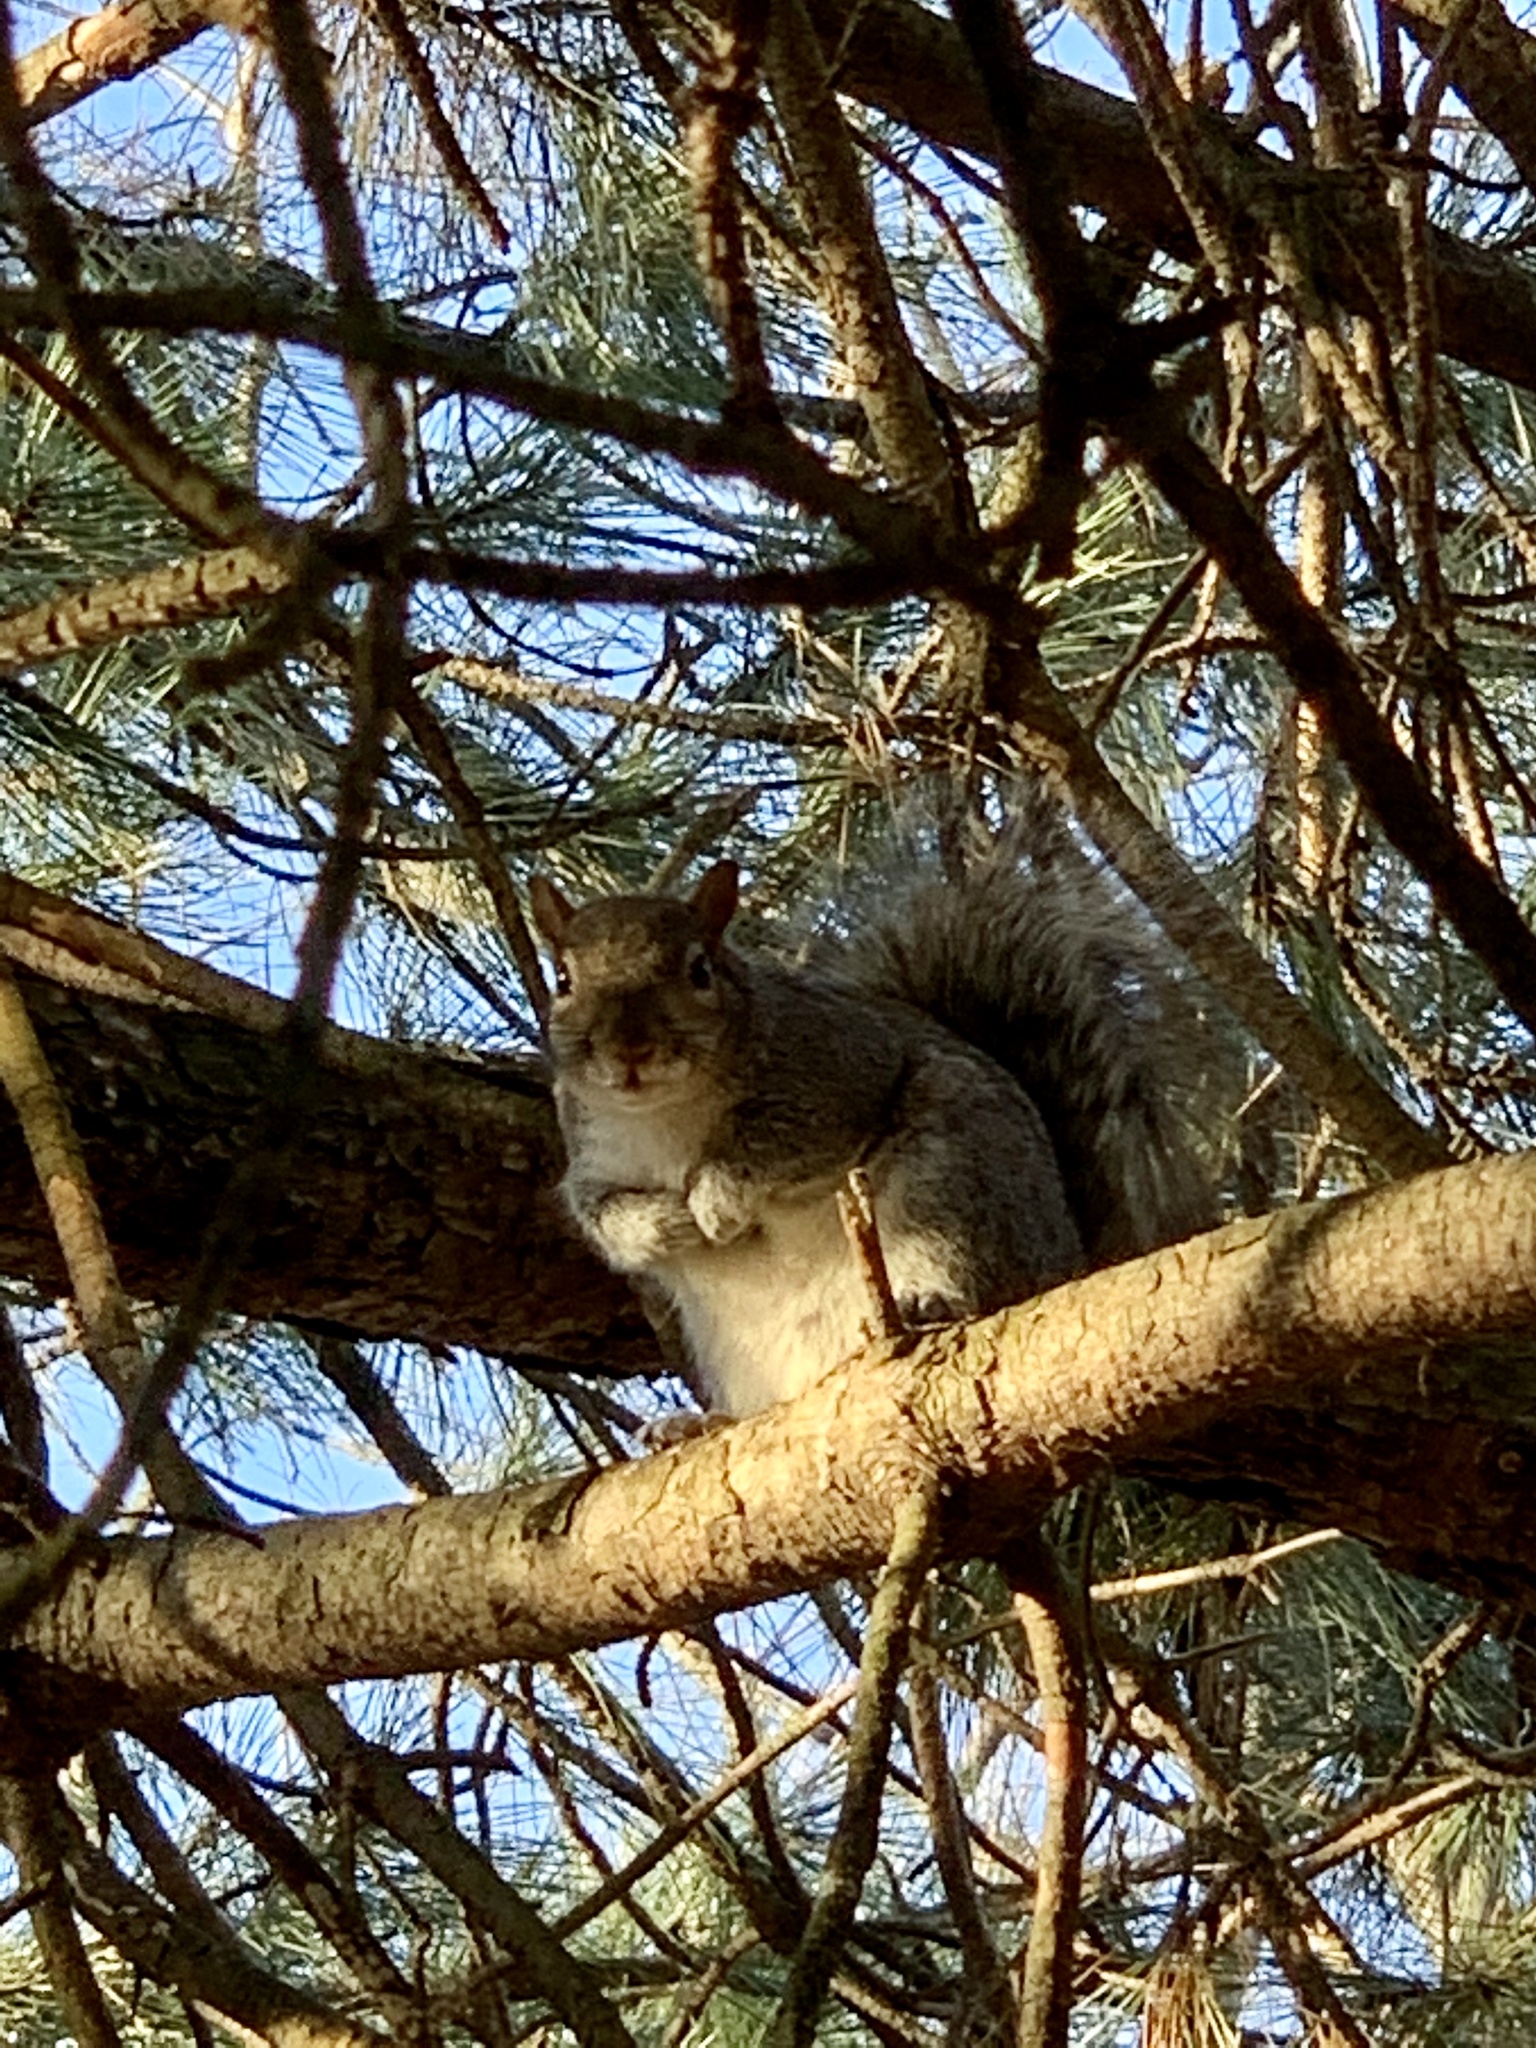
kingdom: Animalia
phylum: Chordata
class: Mammalia
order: Rodentia
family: Sciuridae
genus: Sciurus
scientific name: Sciurus carolinensis
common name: Eastern gray squirrel
